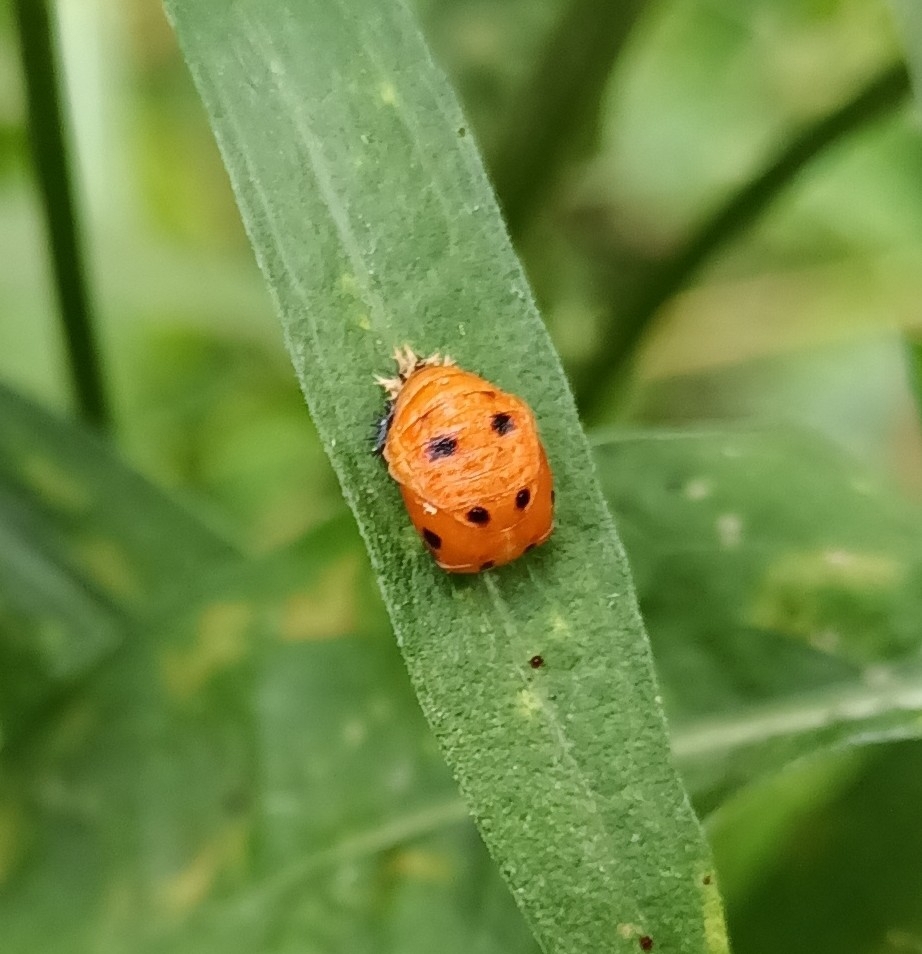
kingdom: Animalia
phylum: Arthropoda
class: Insecta
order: Coleoptera
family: Coccinellidae
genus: Harmonia
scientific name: Harmonia axyridis
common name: Harlequin ladybird
